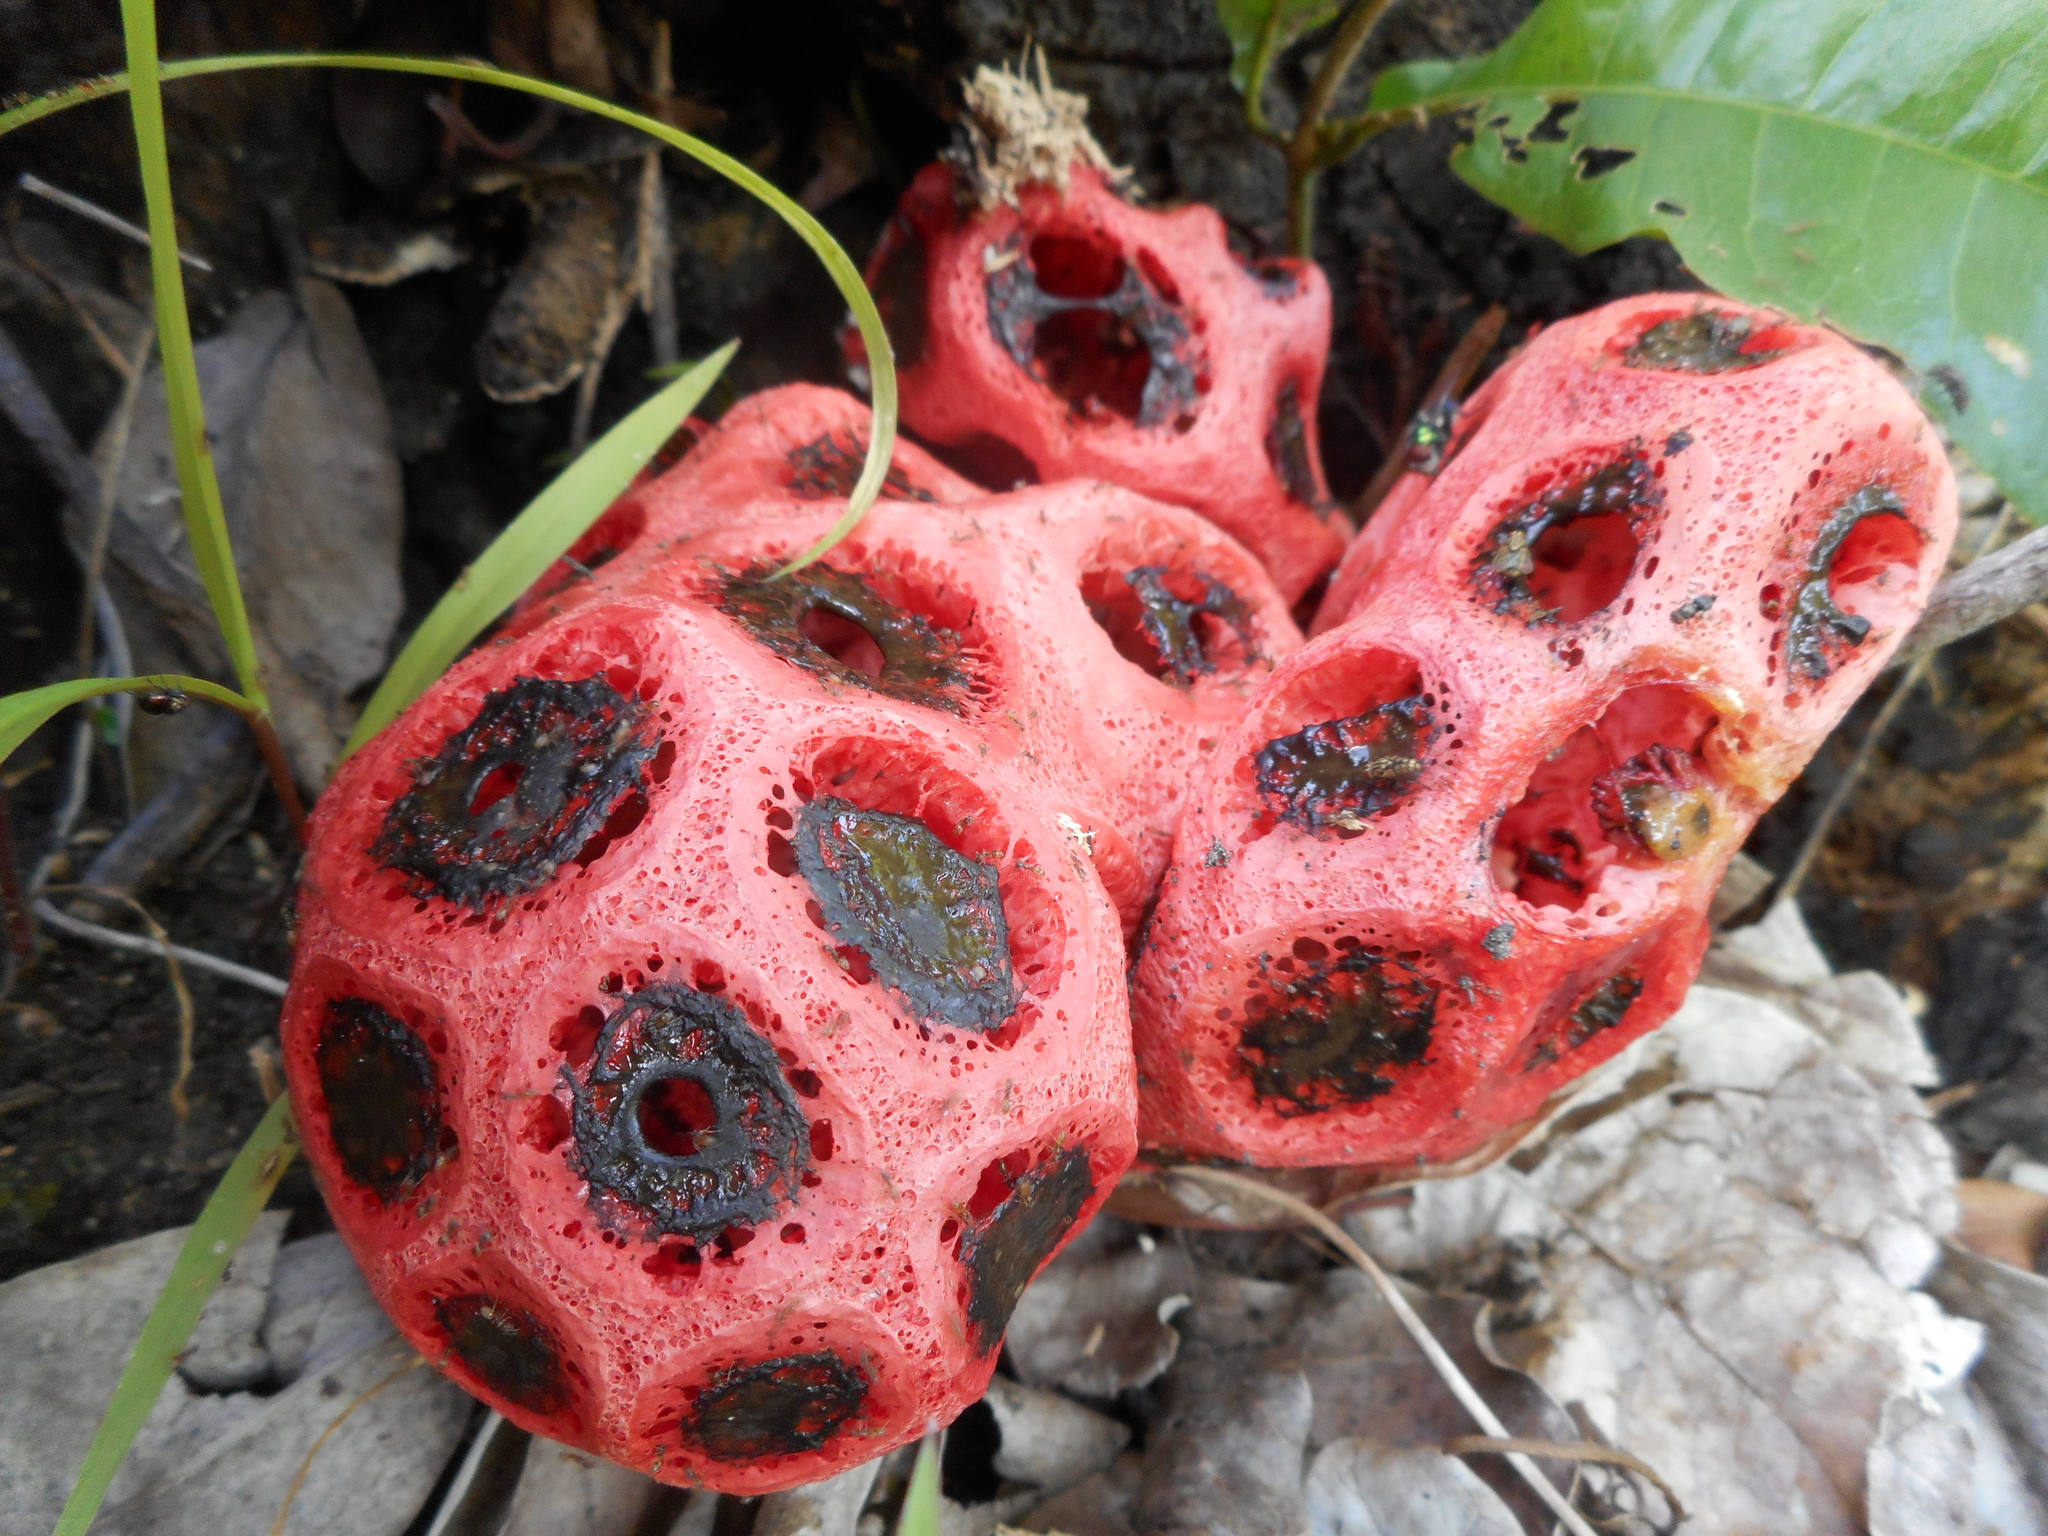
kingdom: Fungi
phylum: Basidiomycota
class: Agaricomycetes
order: Phallales
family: Phallaceae
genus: Clathrus
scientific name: Clathrus crispatus
